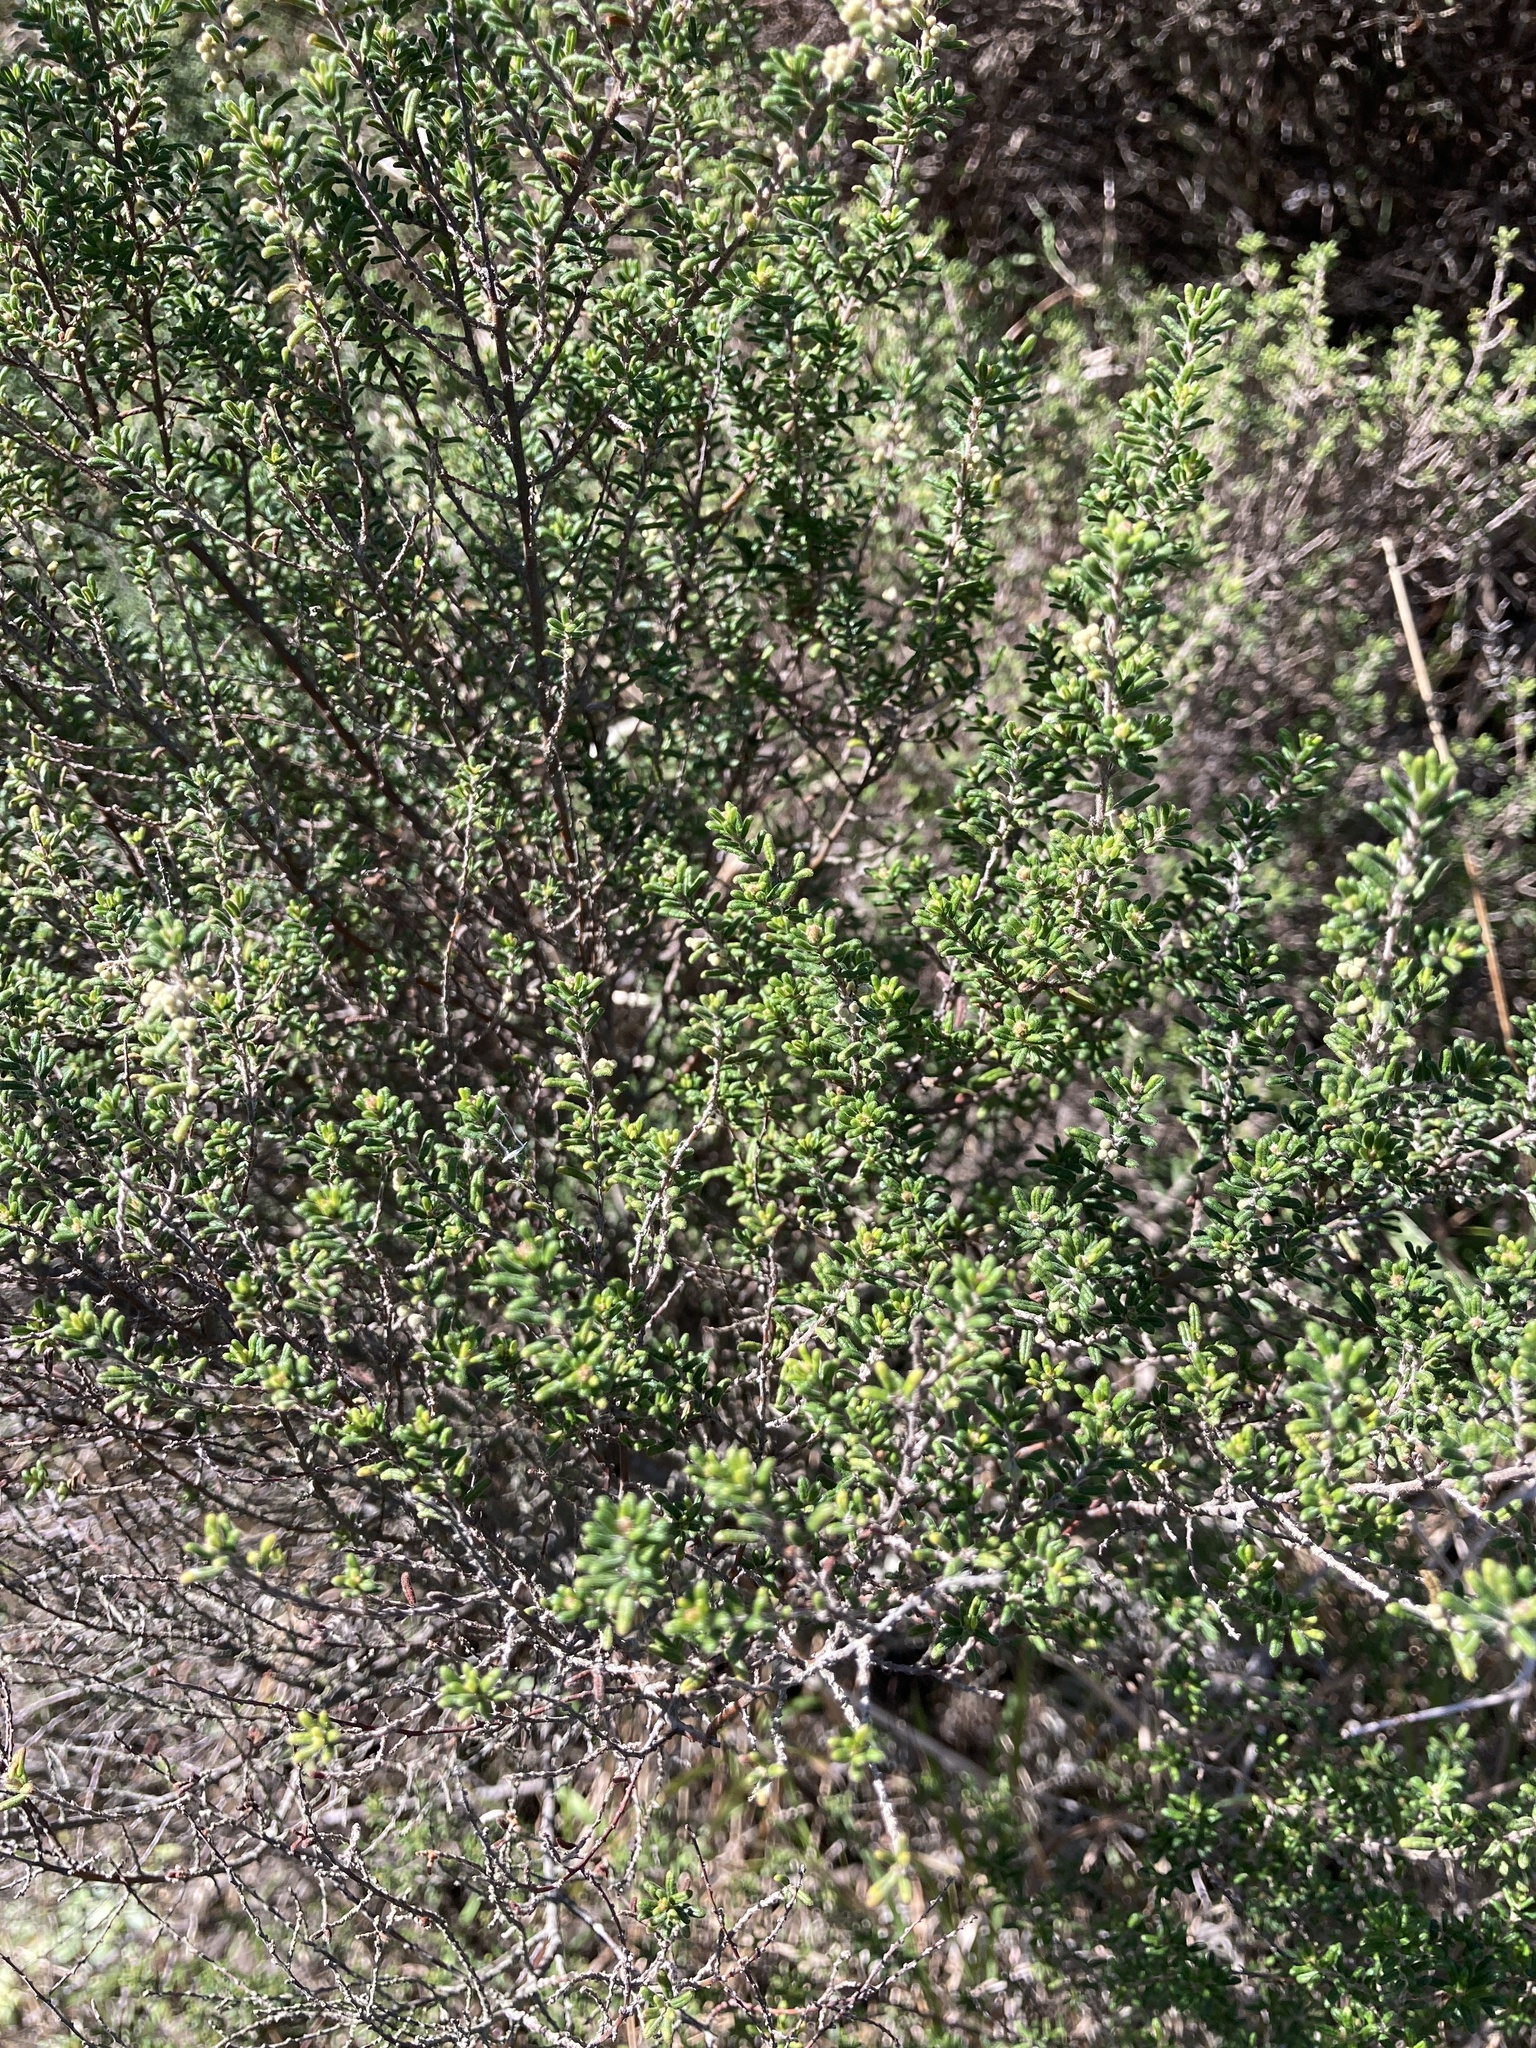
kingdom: Plantae
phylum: Tracheophyta
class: Magnoliopsida
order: Rosales
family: Rhamnaceae
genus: Pomaderris
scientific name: Pomaderris amoena
